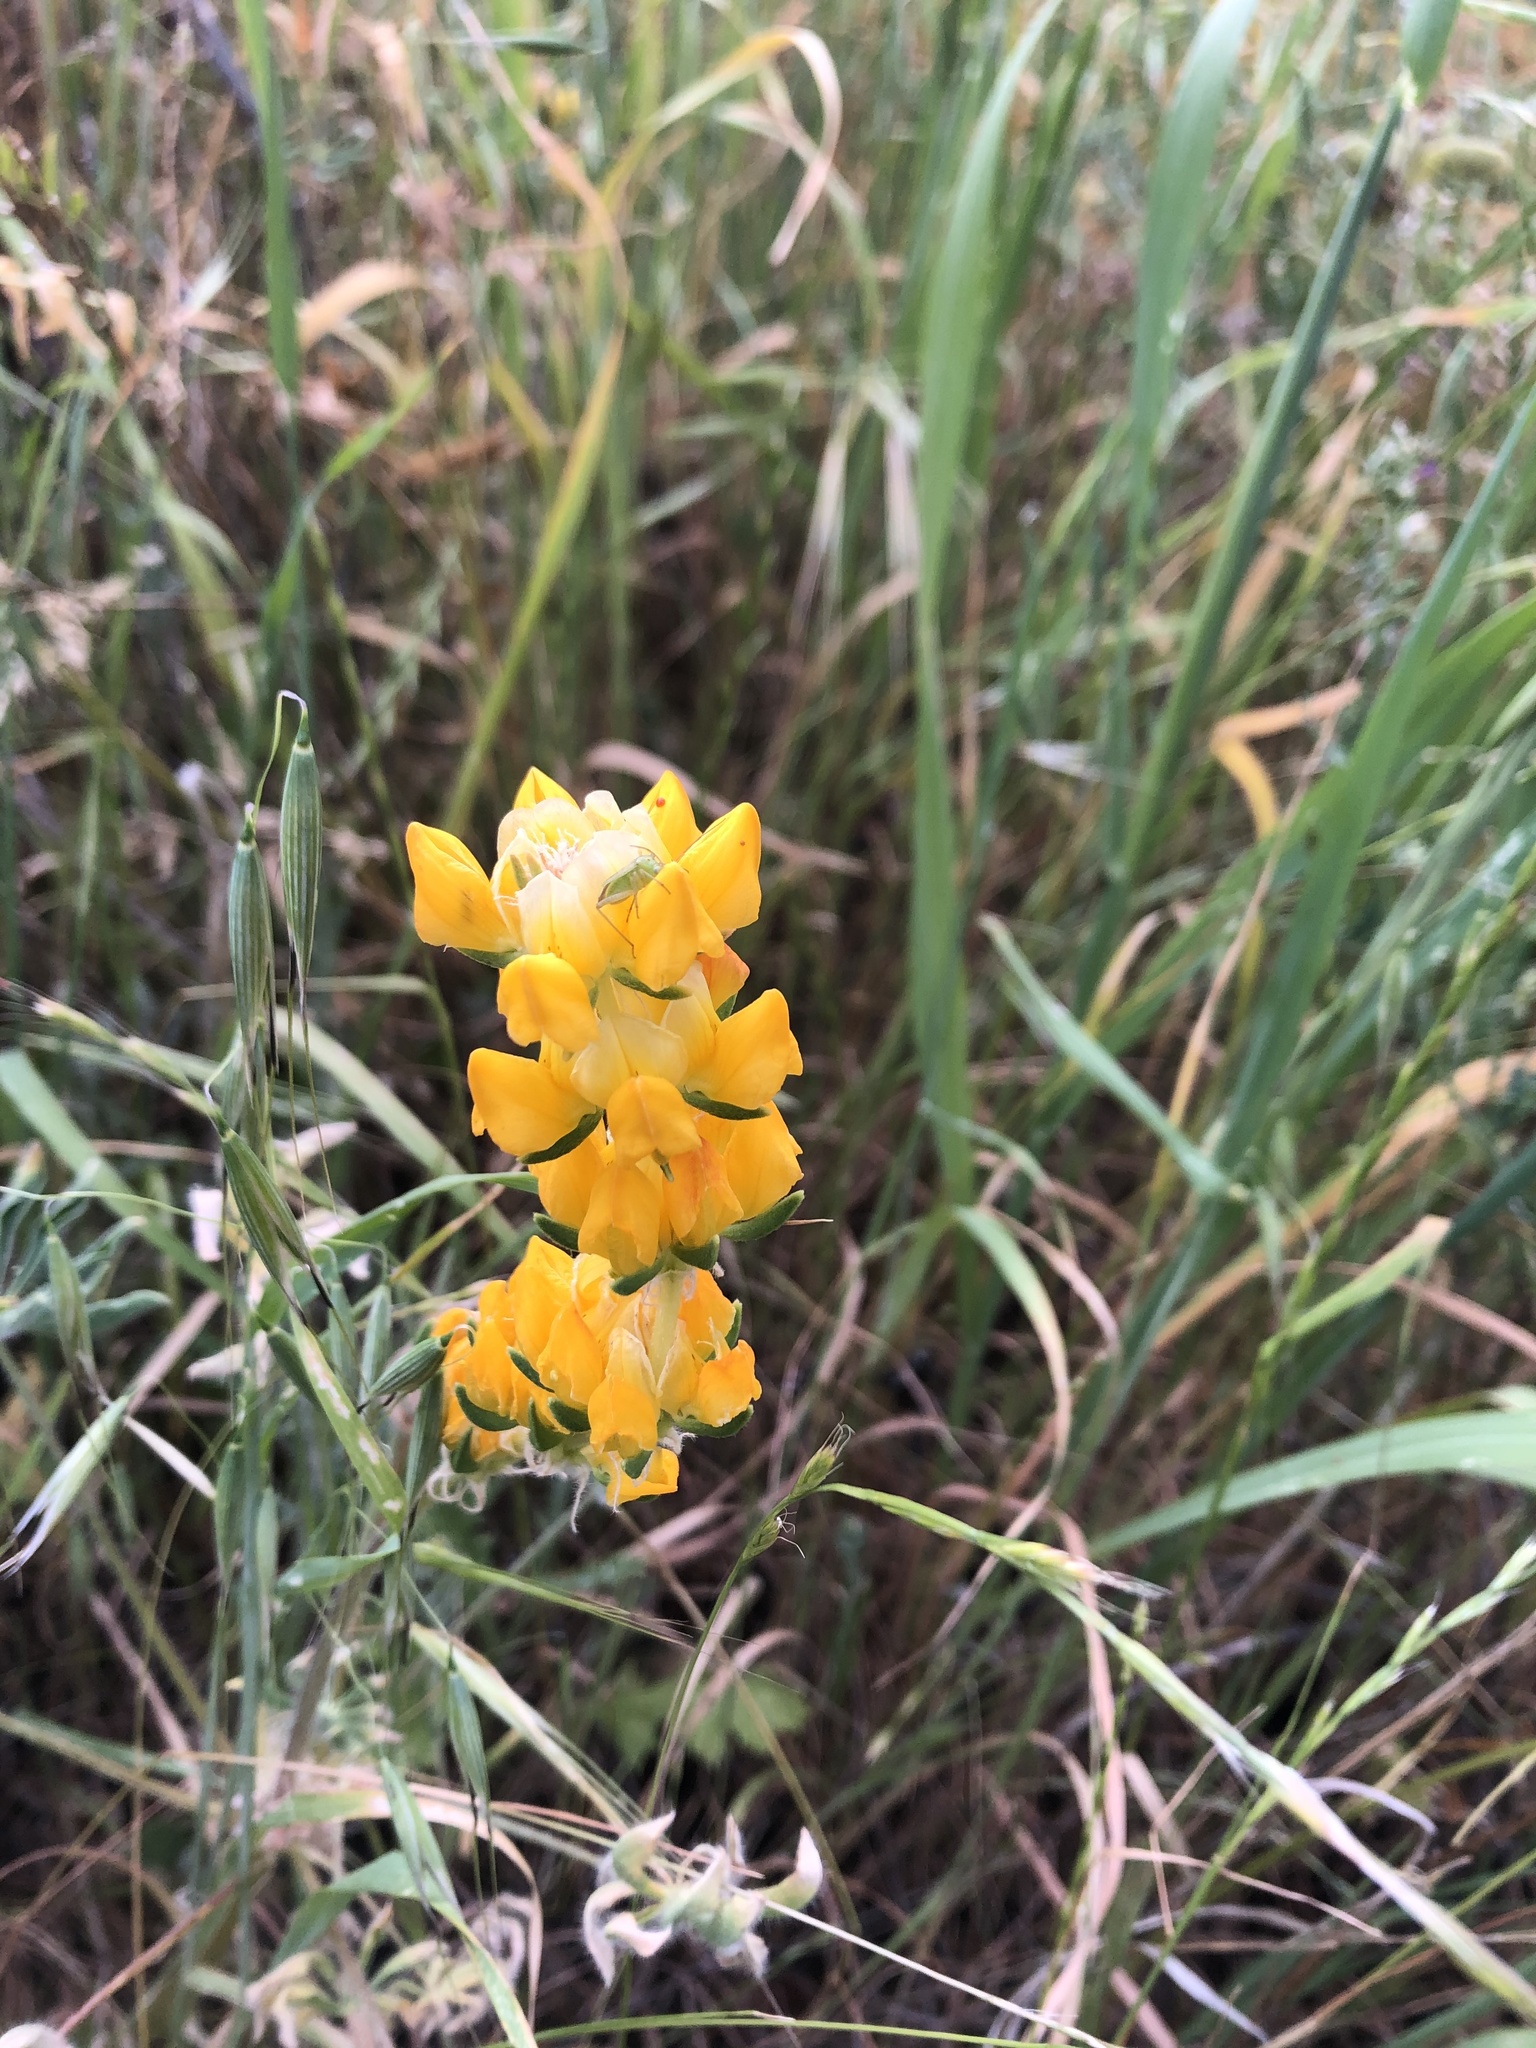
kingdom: Plantae
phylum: Tracheophyta
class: Magnoliopsida
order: Fabales
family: Fabaceae
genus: Lupinus
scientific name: Lupinus microcarpus
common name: Chick lupine
